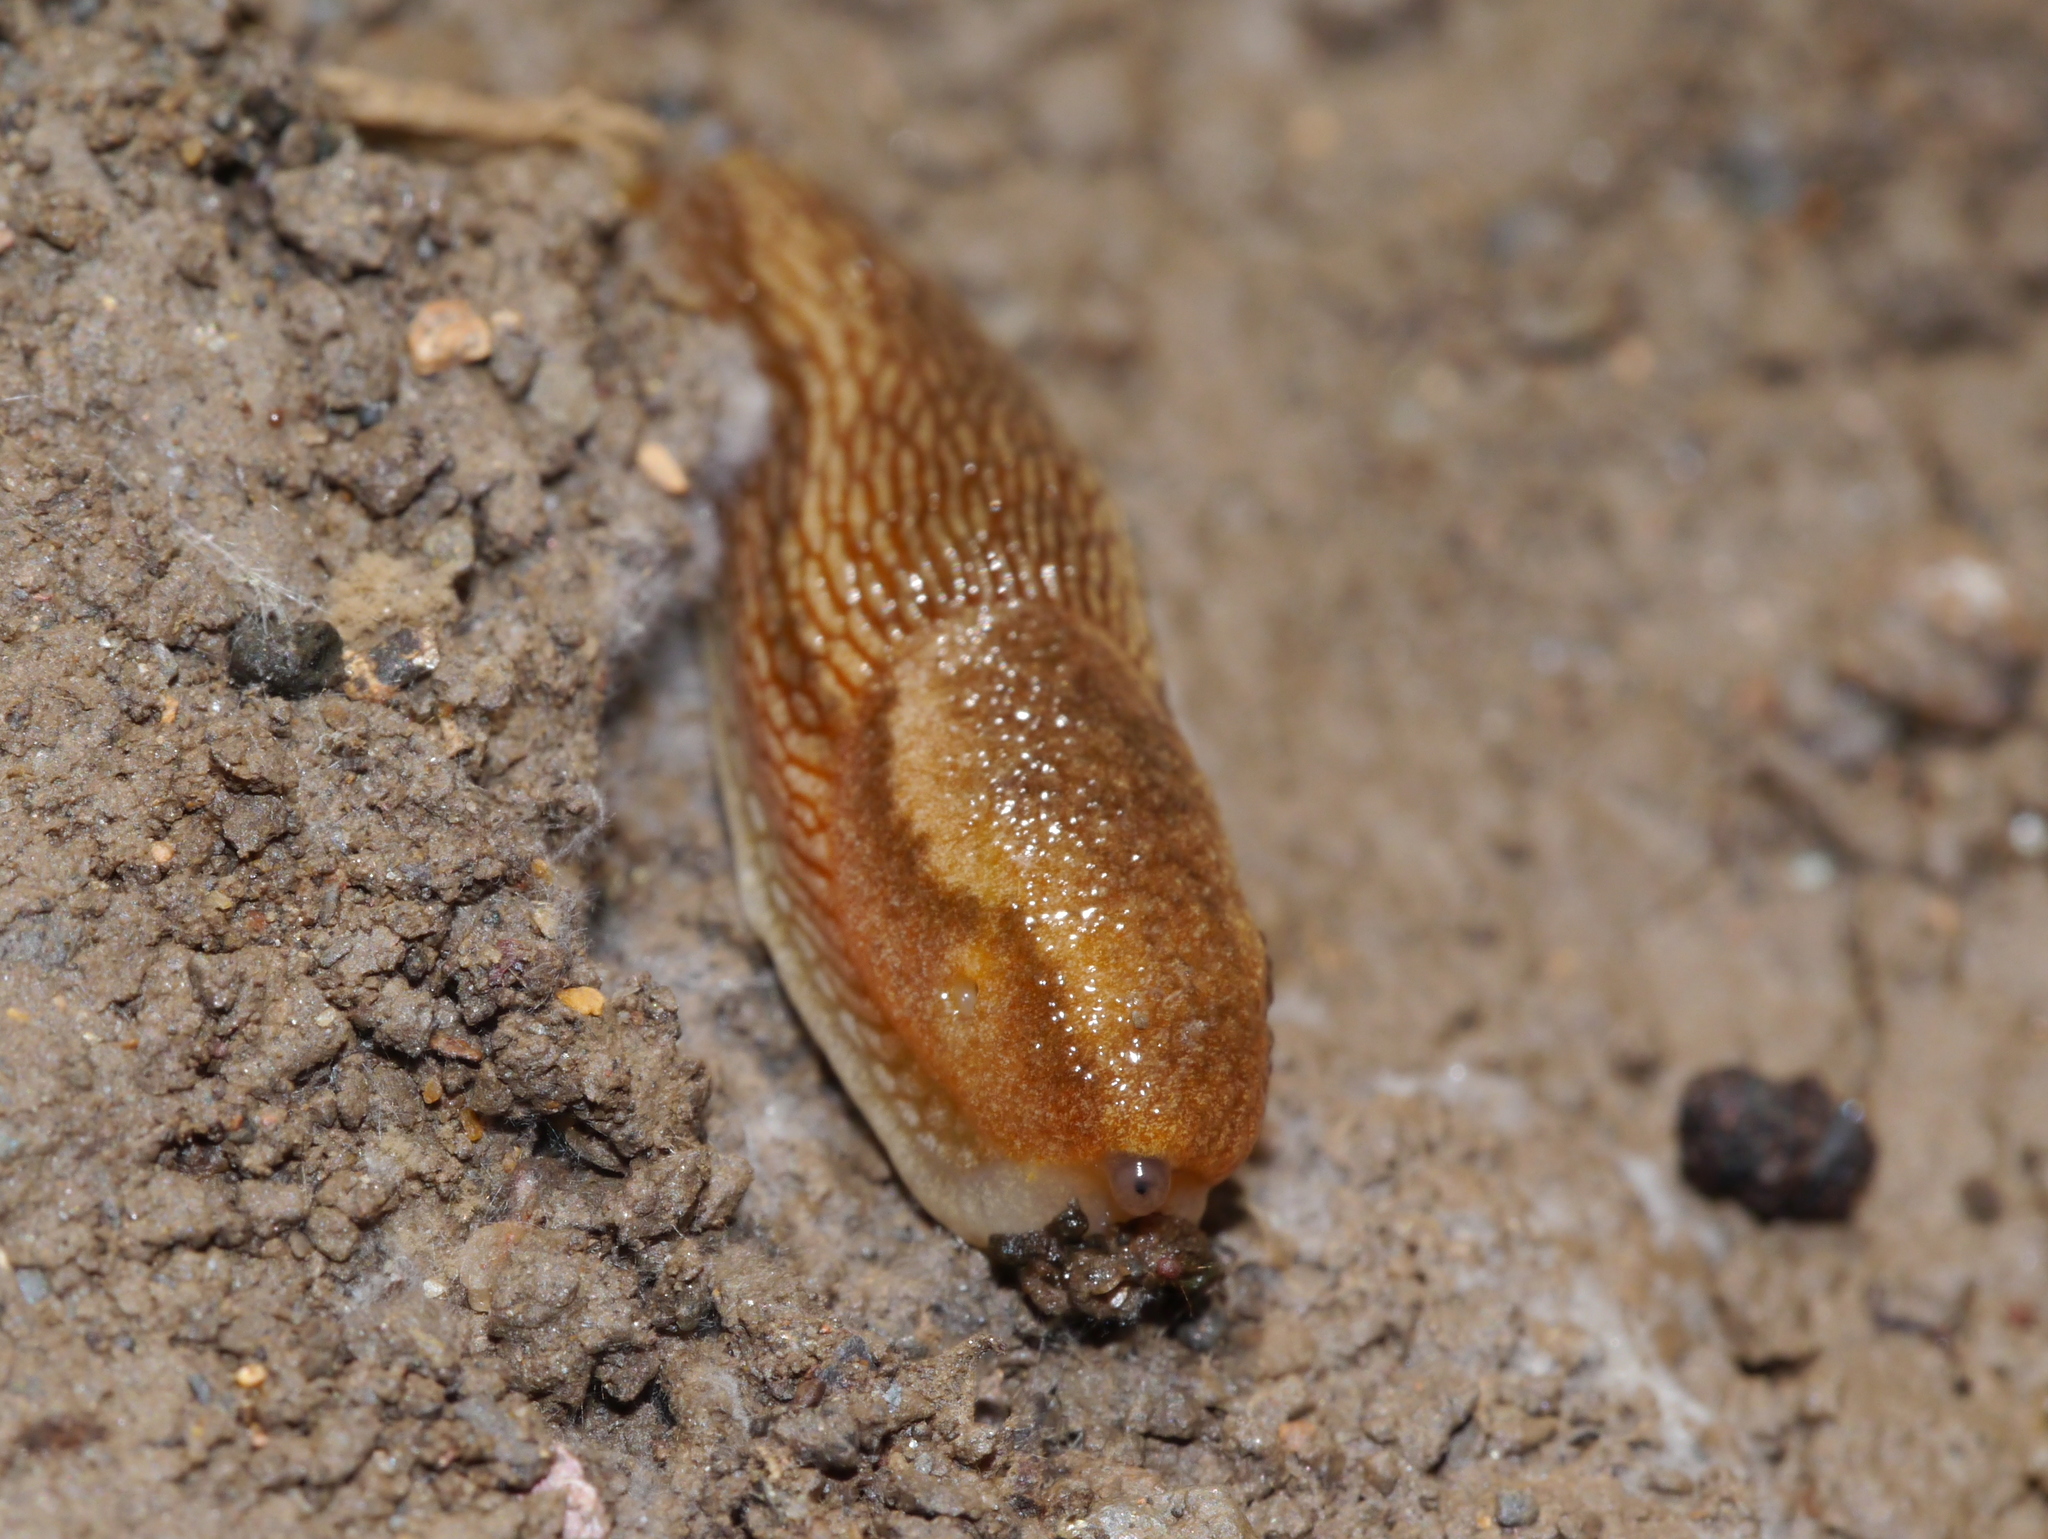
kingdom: Animalia
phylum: Mollusca
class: Gastropoda
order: Stylommatophora
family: Arionidae
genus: Arion
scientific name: Arion subfuscus
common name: Dusky arion
